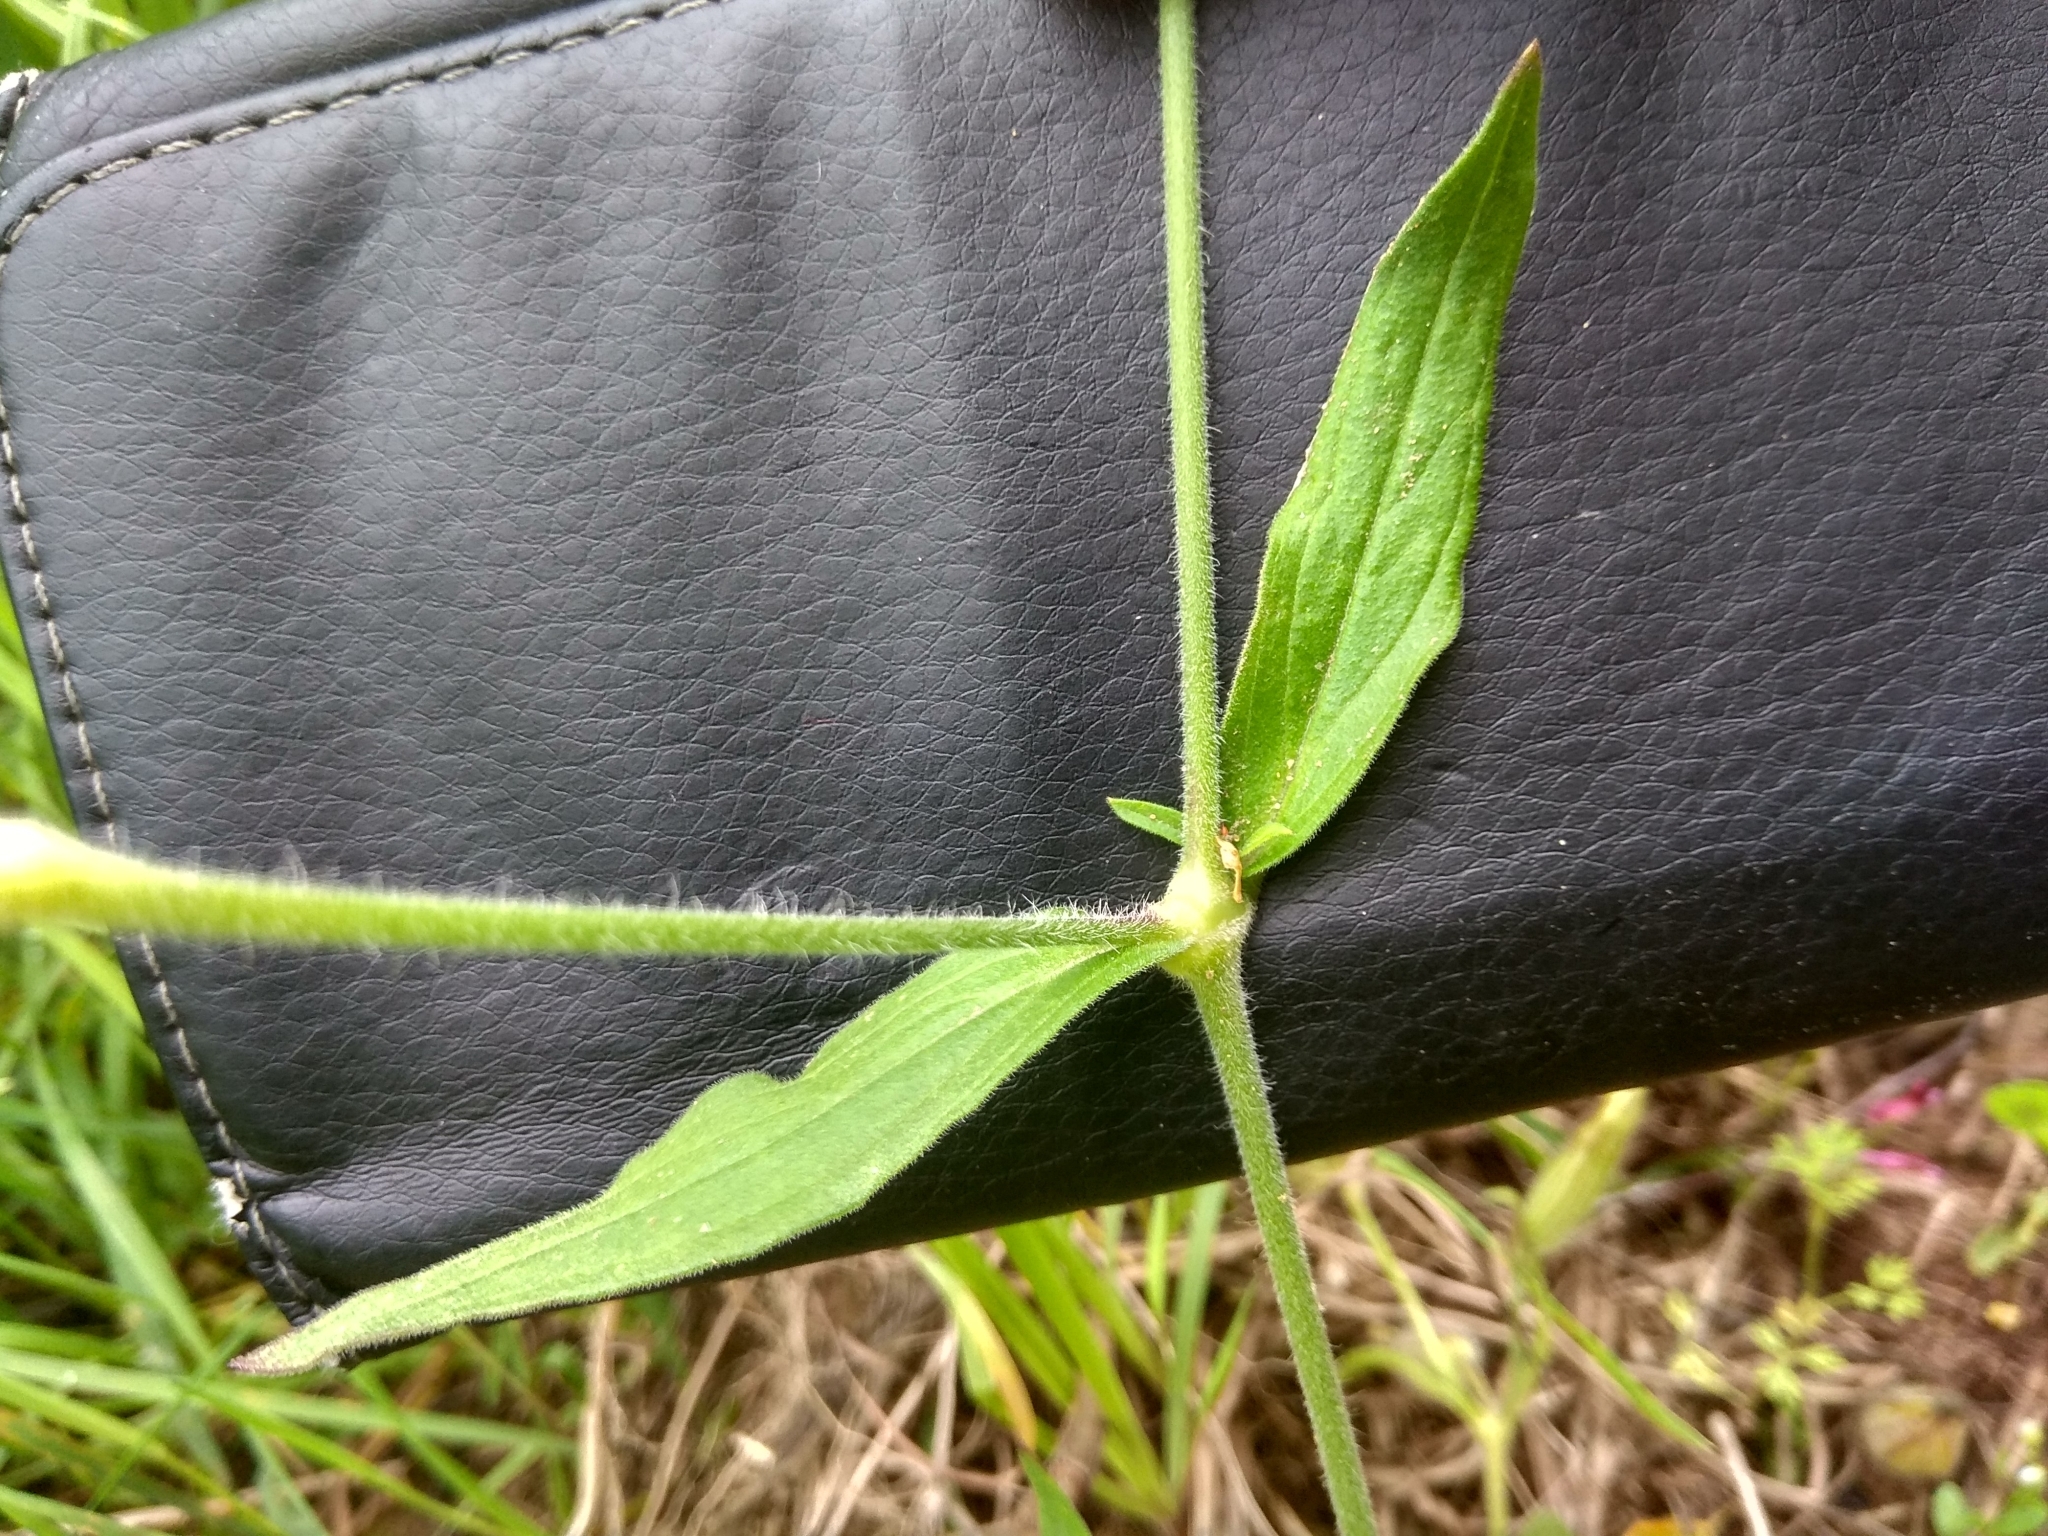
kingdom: Plantae
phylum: Tracheophyta
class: Magnoliopsida
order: Caryophyllales
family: Caryophyllaceae
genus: Silene
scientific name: Silene latifolia
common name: White campion
